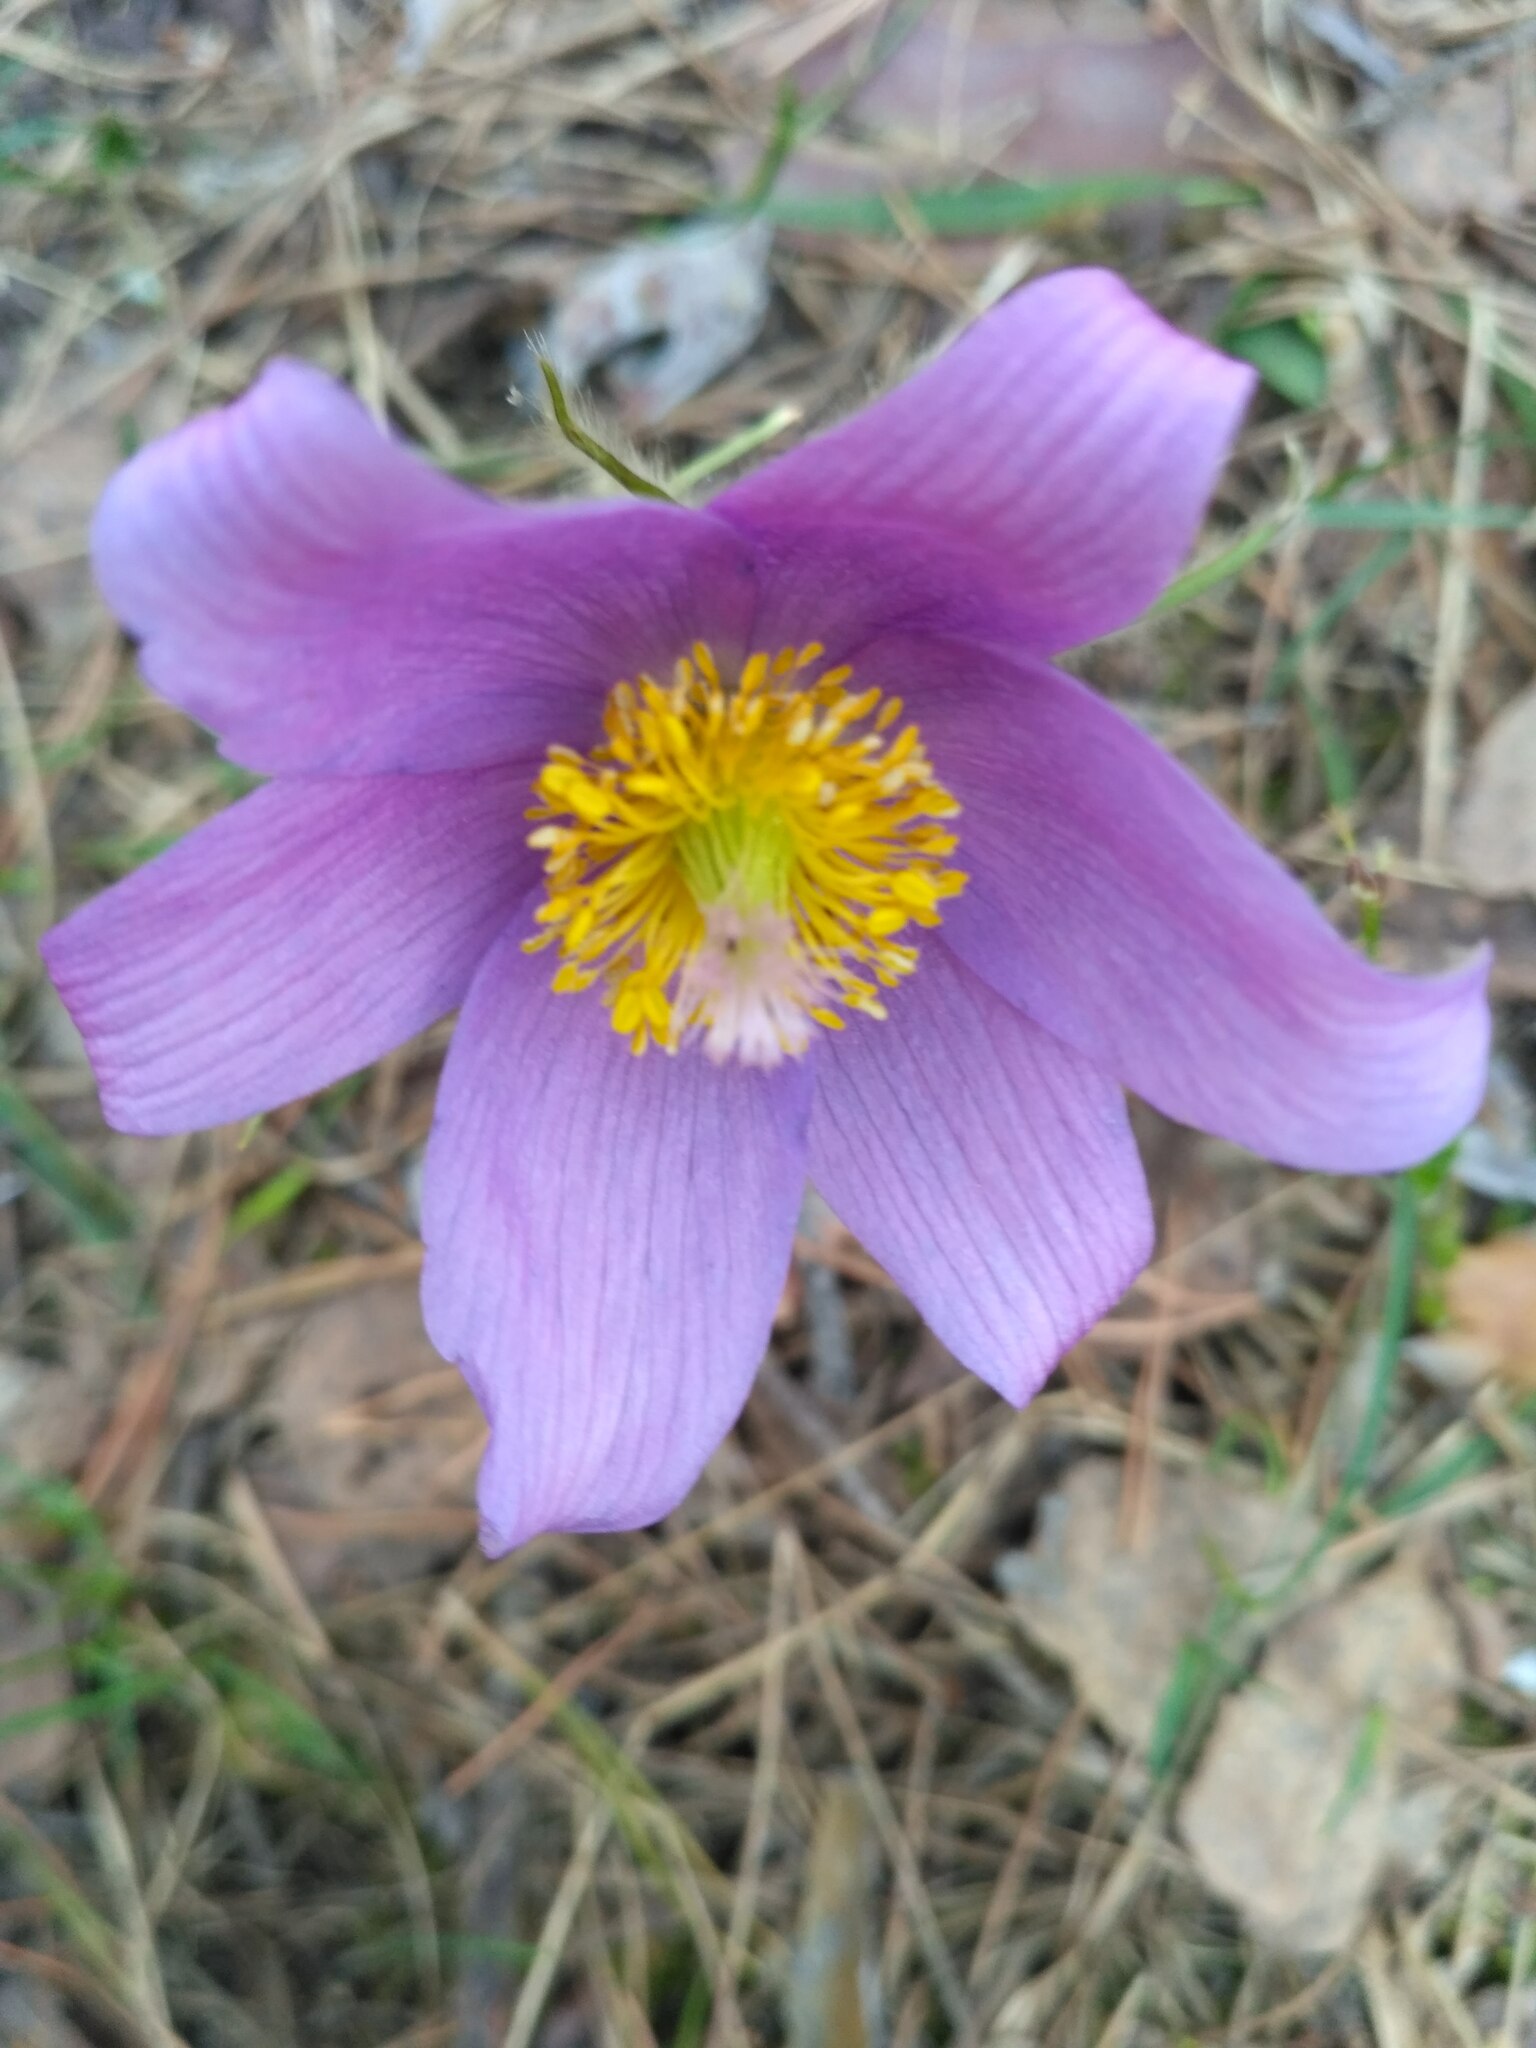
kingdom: Plantae
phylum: Tracheophyta
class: Magnoliopsida
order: Ranunculales
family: Ranunculaceae
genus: Pulsatilla
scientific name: Pulsatilla patens
